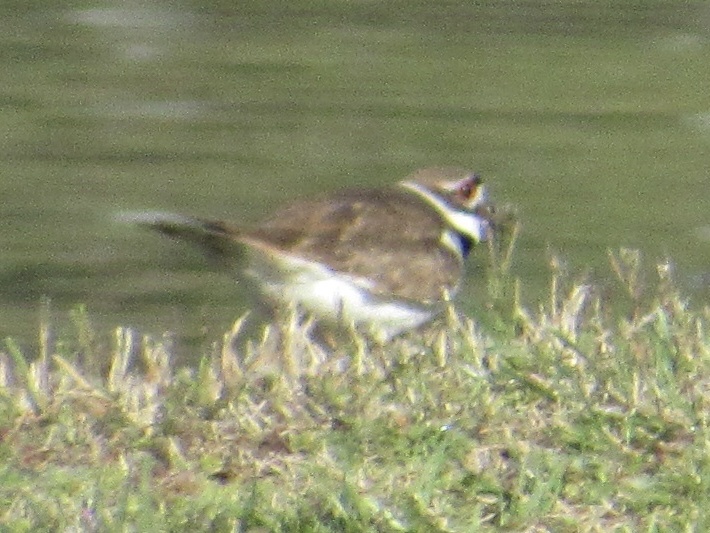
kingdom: Animalia
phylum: Chordata
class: Aves
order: Charadriiformes
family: Charadriidae
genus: Charadrius
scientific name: Charadrius vociferus
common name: Killdeer
